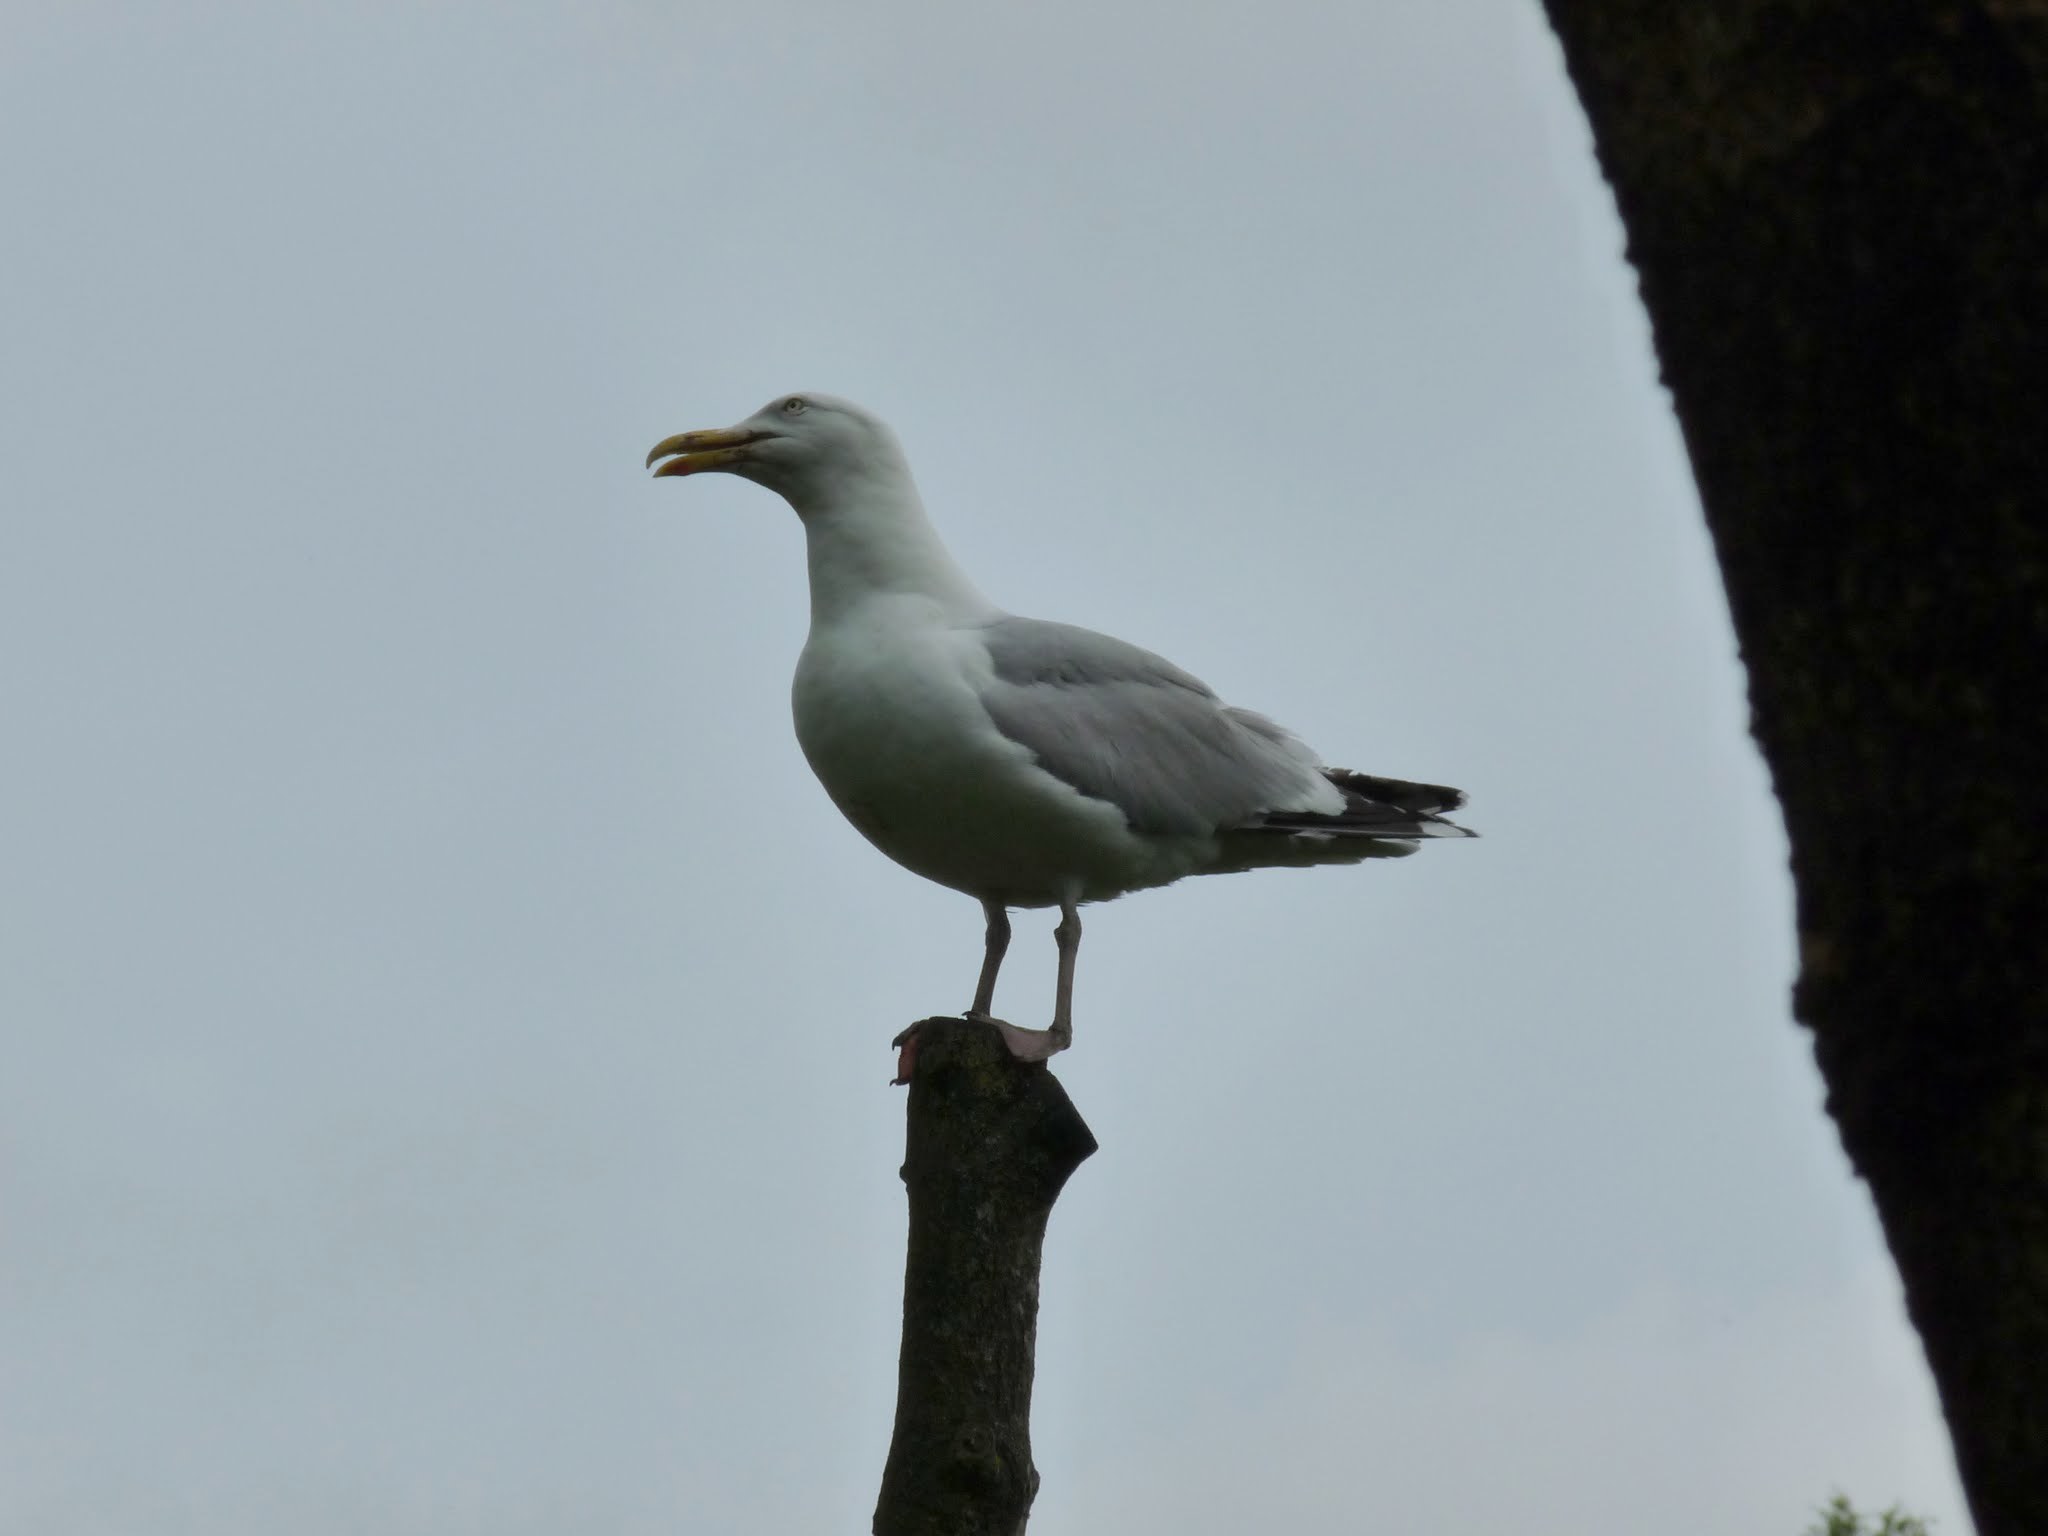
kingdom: Animalia
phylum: Chordata
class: Aves
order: Charadriiformes
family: Laridae
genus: Larus
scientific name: Larus argentatus
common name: Herring gull
